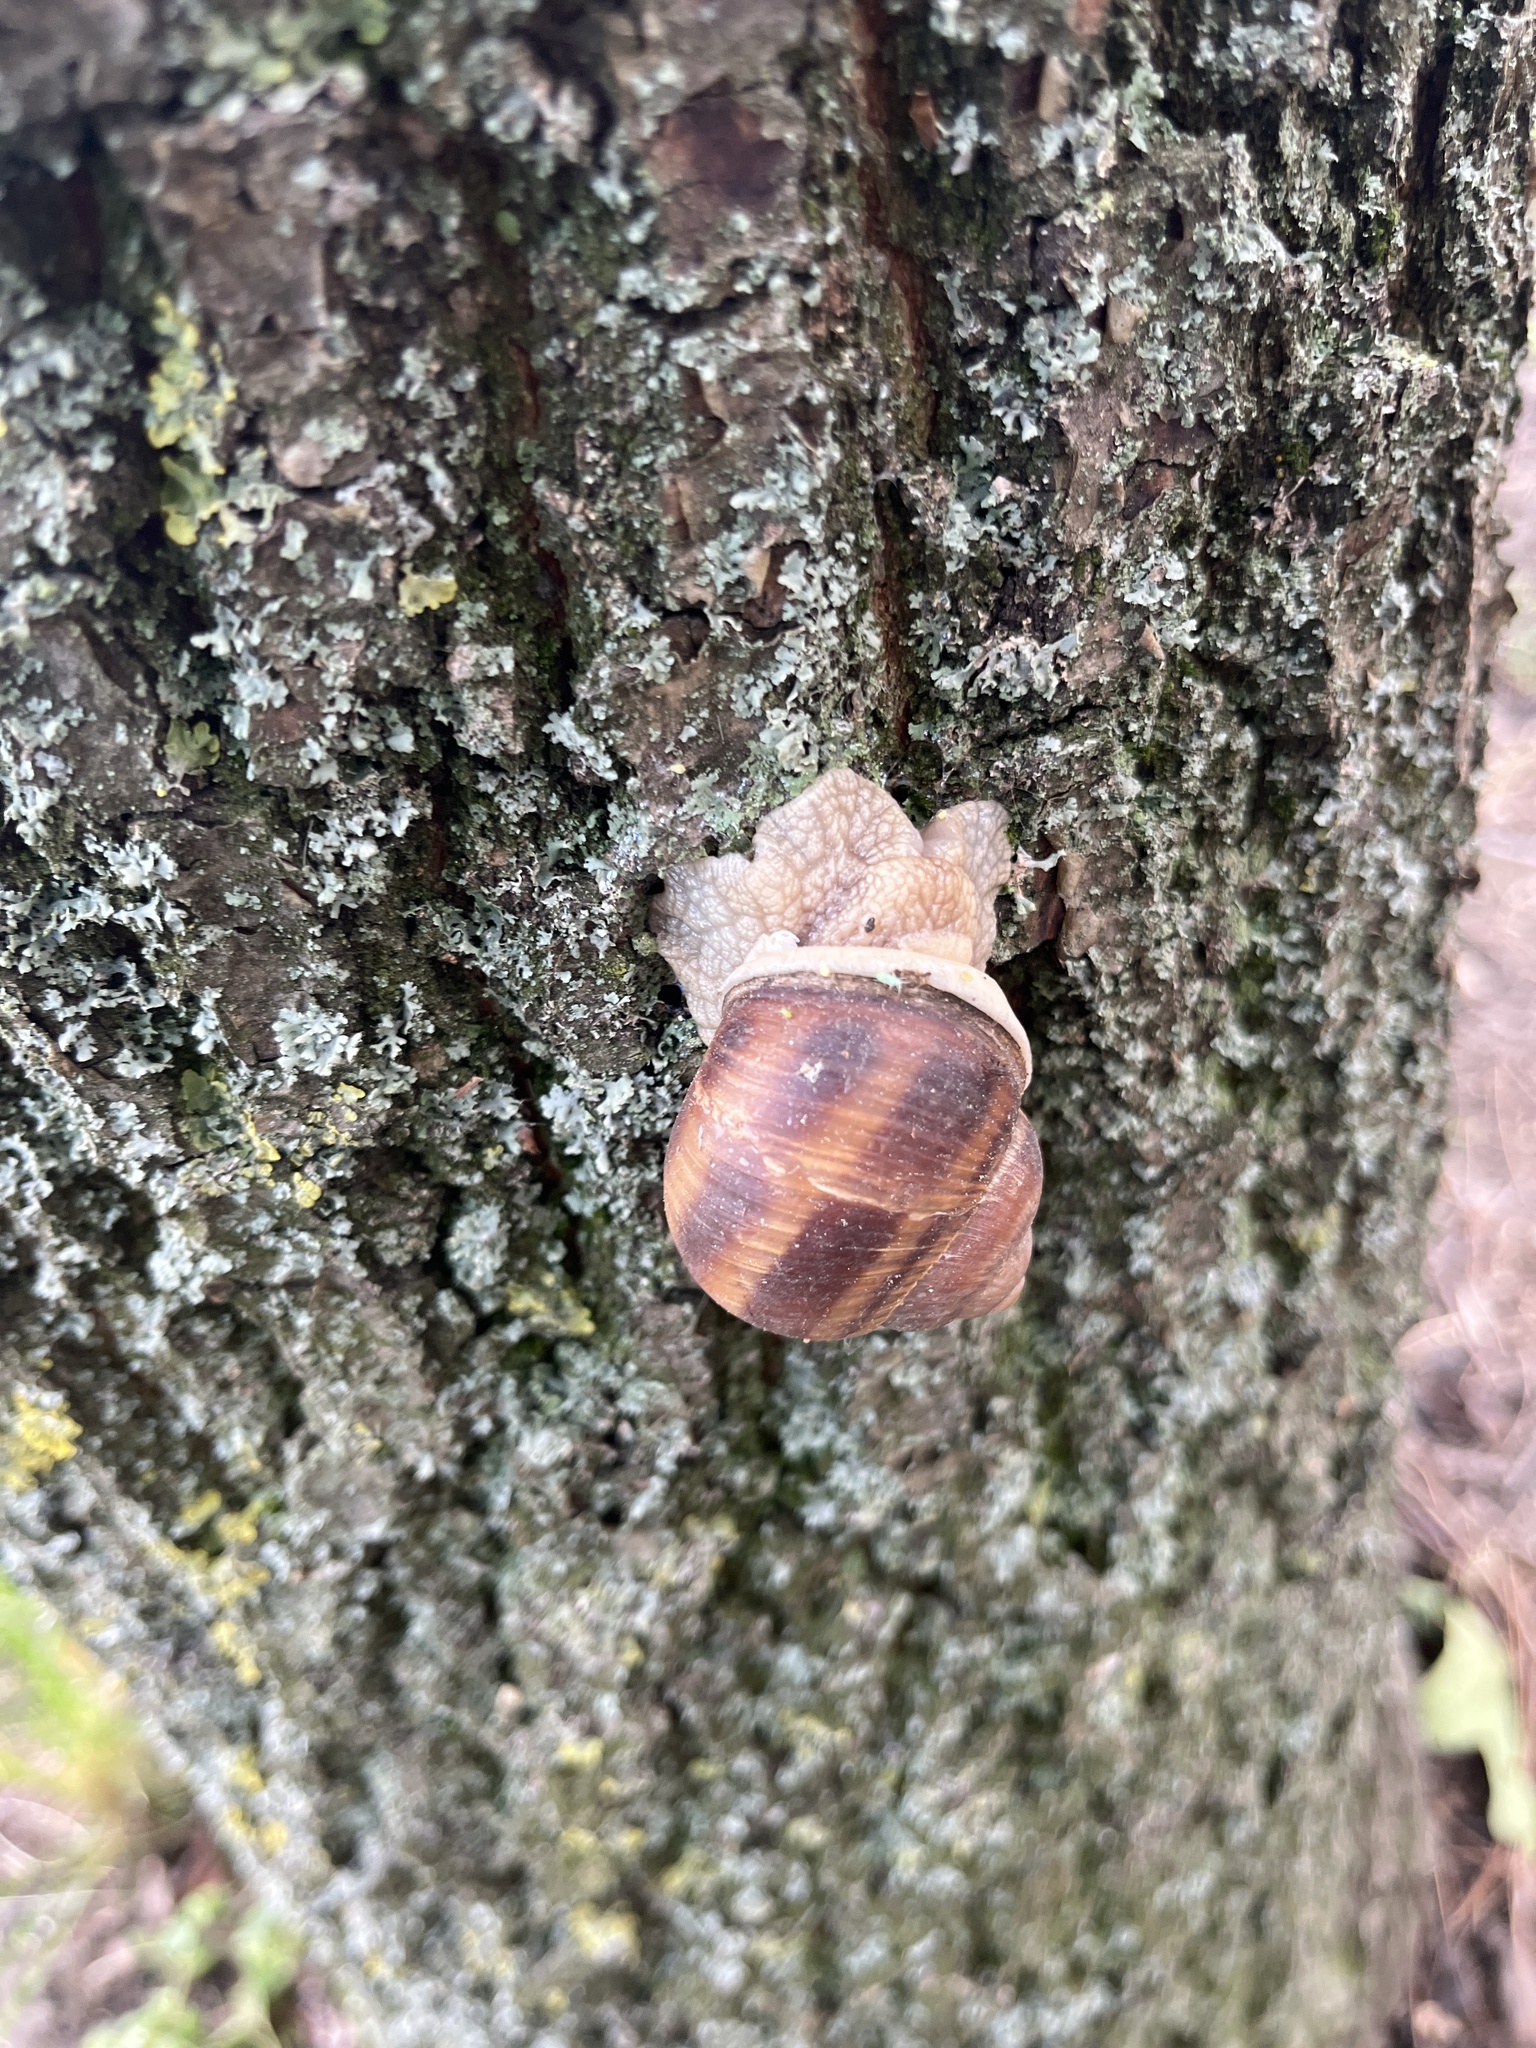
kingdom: Animalia
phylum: Mollusca
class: Gastropoda
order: Stylommatophora
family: Helicidae
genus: Helix
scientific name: Helix pomatia
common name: Roman snail
